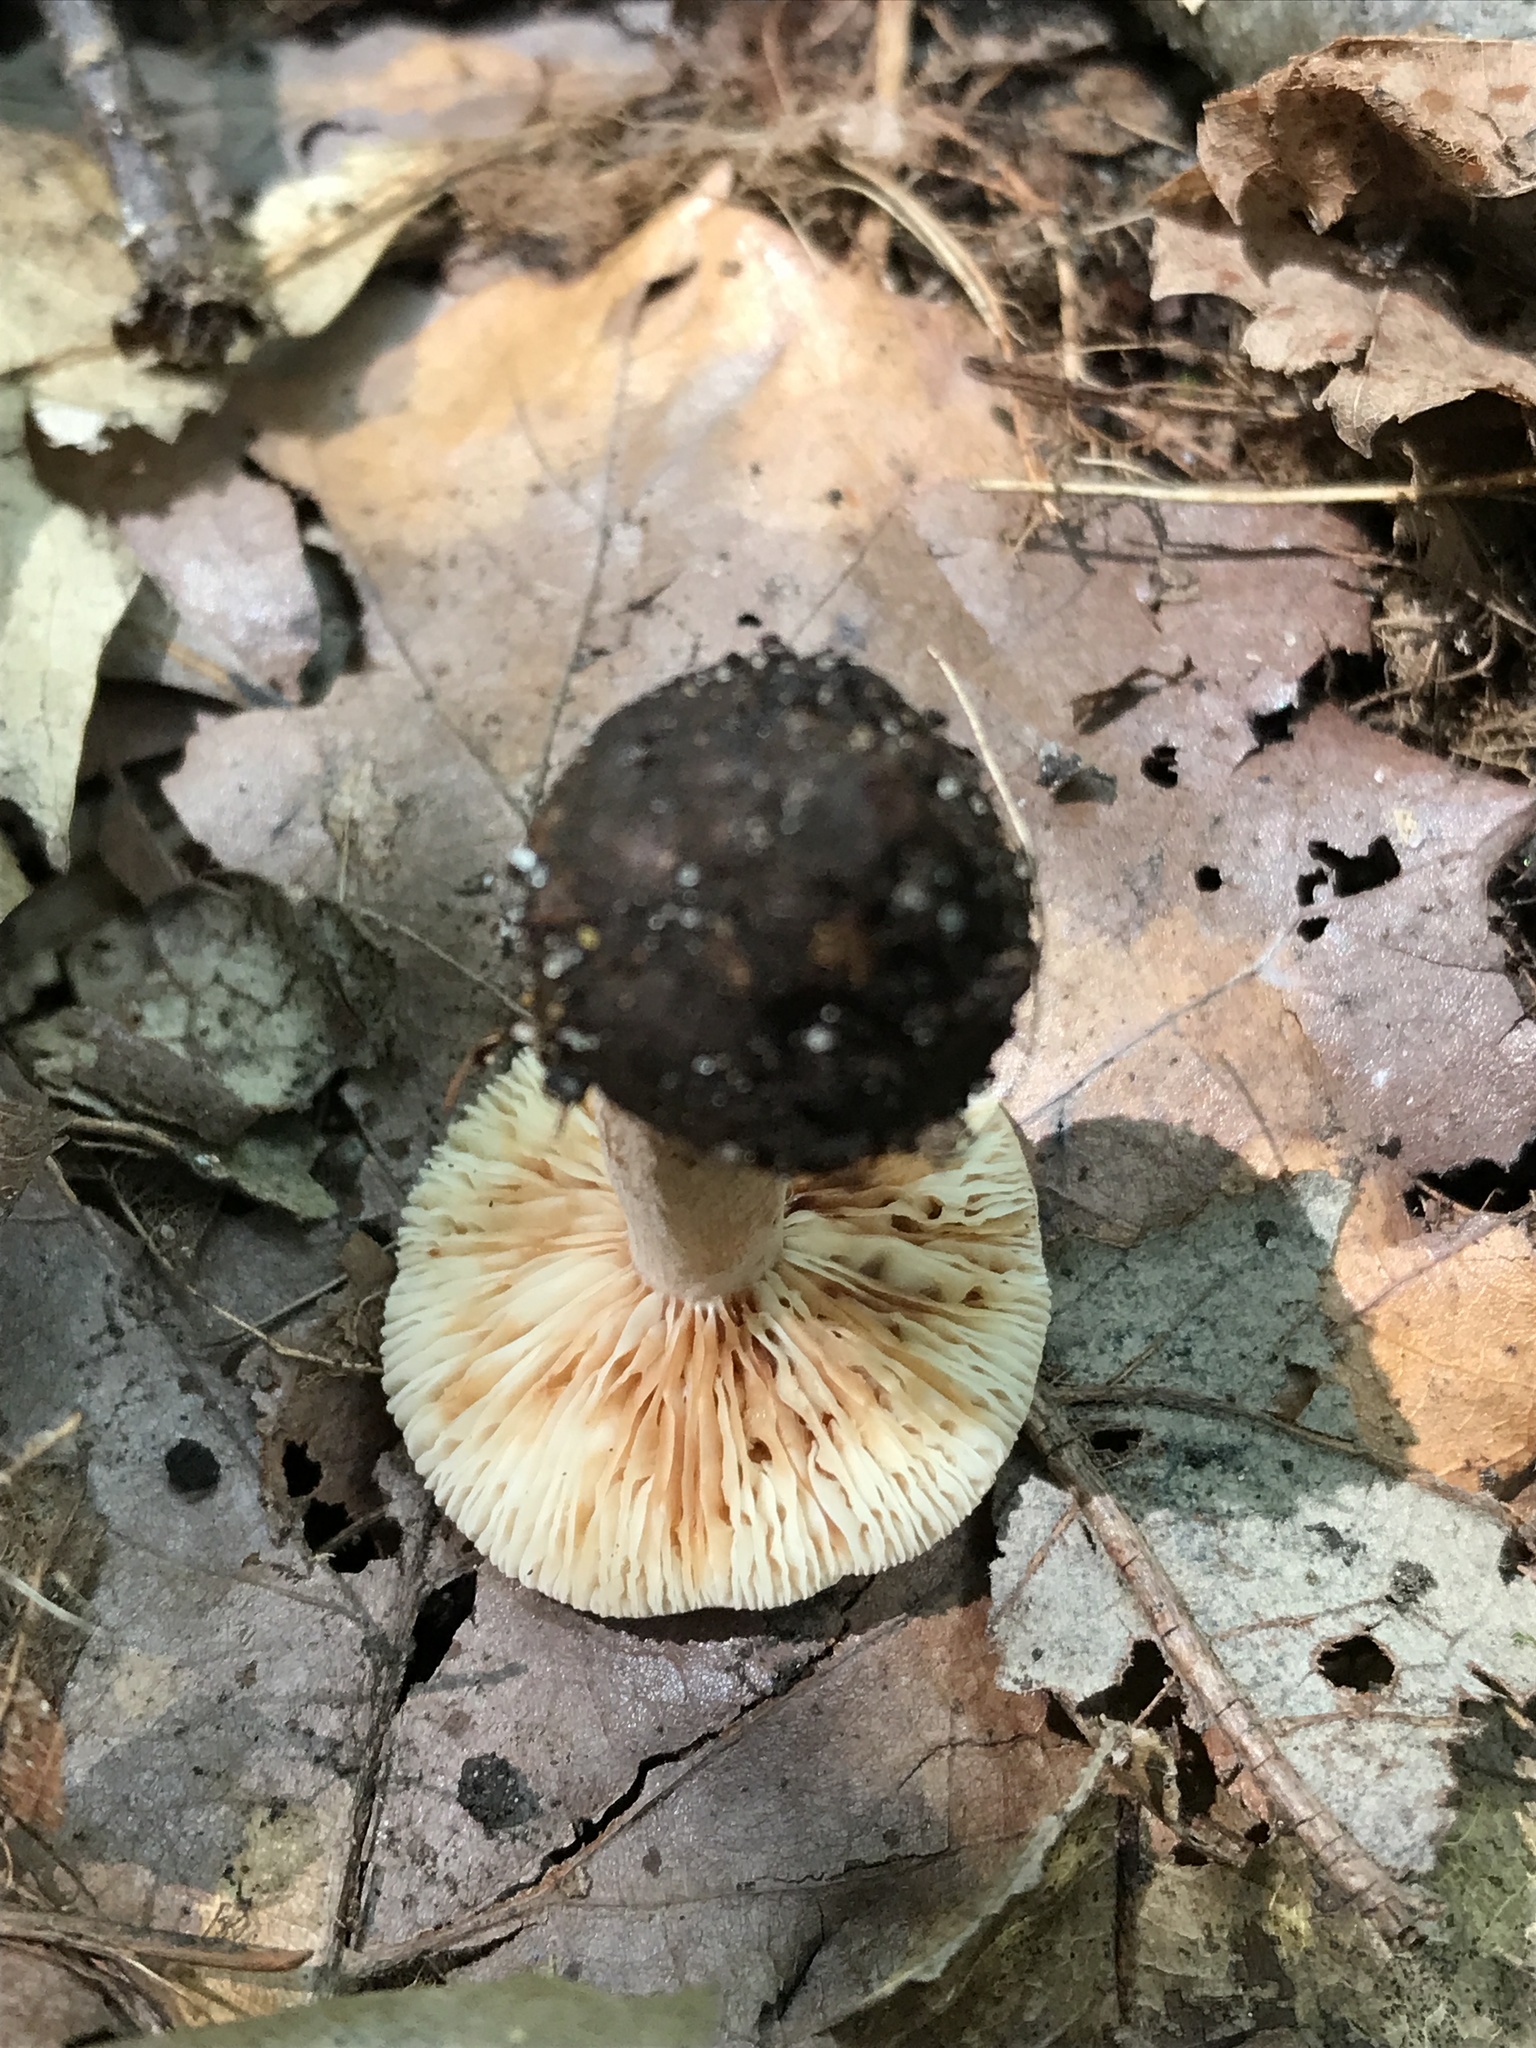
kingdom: Fungi
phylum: Basidiomycota
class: Agaricomycetes
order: Russulales
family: Russulaceae
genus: Lactarius
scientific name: Lactarius mutabilis
